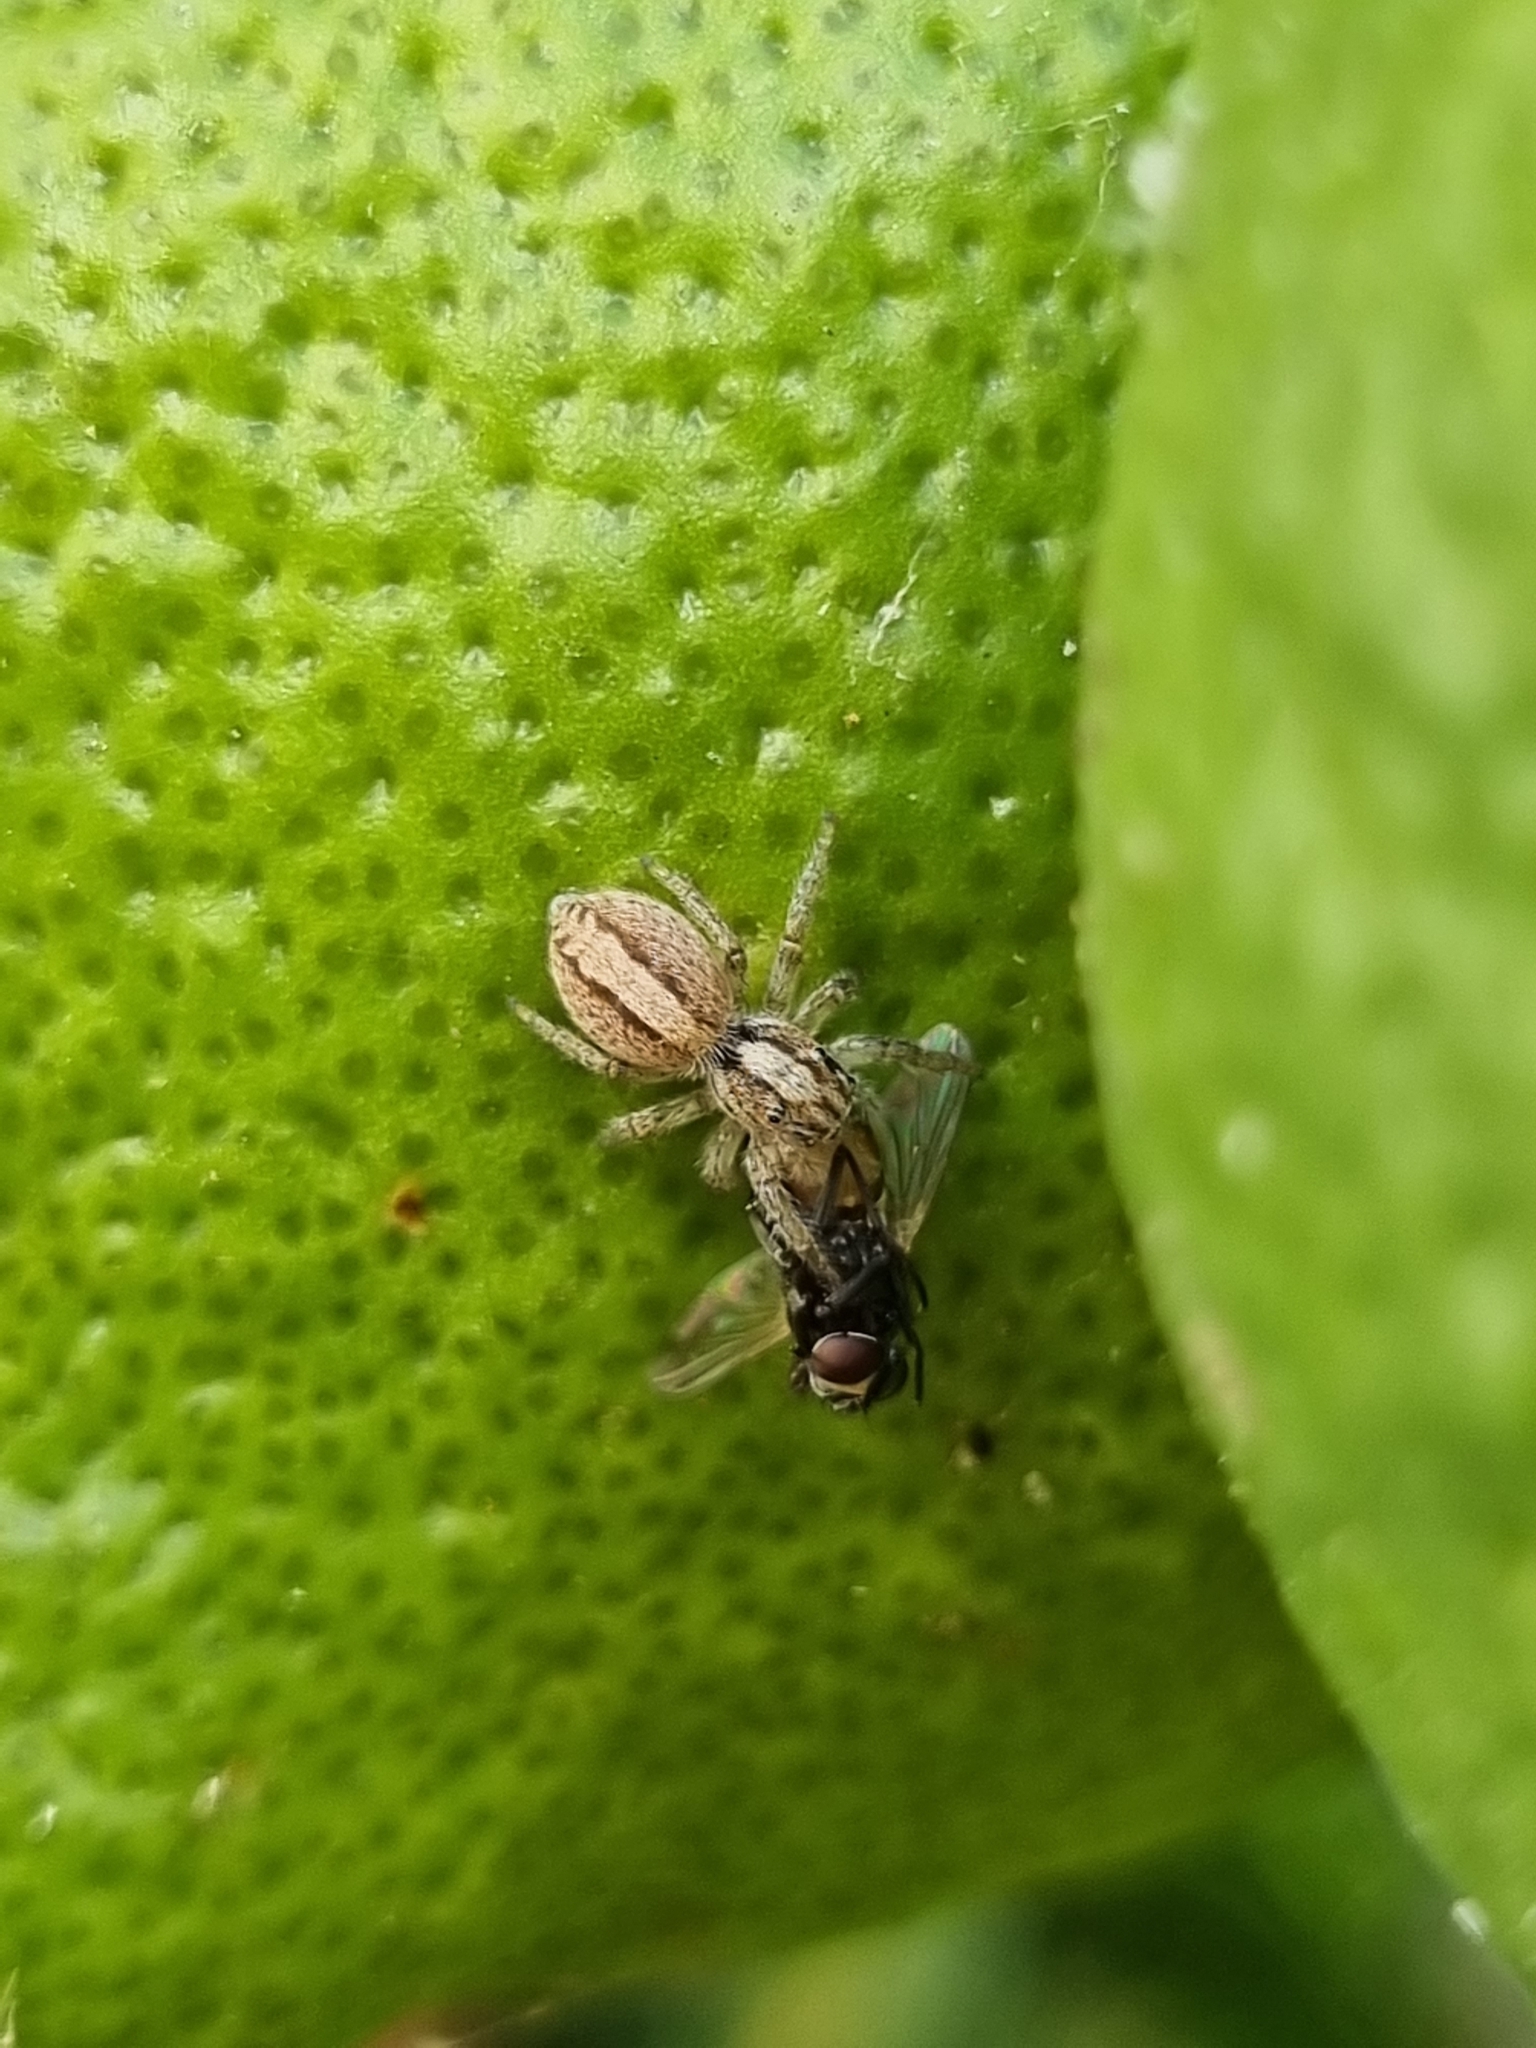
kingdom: Animalia
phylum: Arthropoda
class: Arachnida
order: Araneae
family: Salticidae
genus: Megafreya
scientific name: Megafreya sutrix
